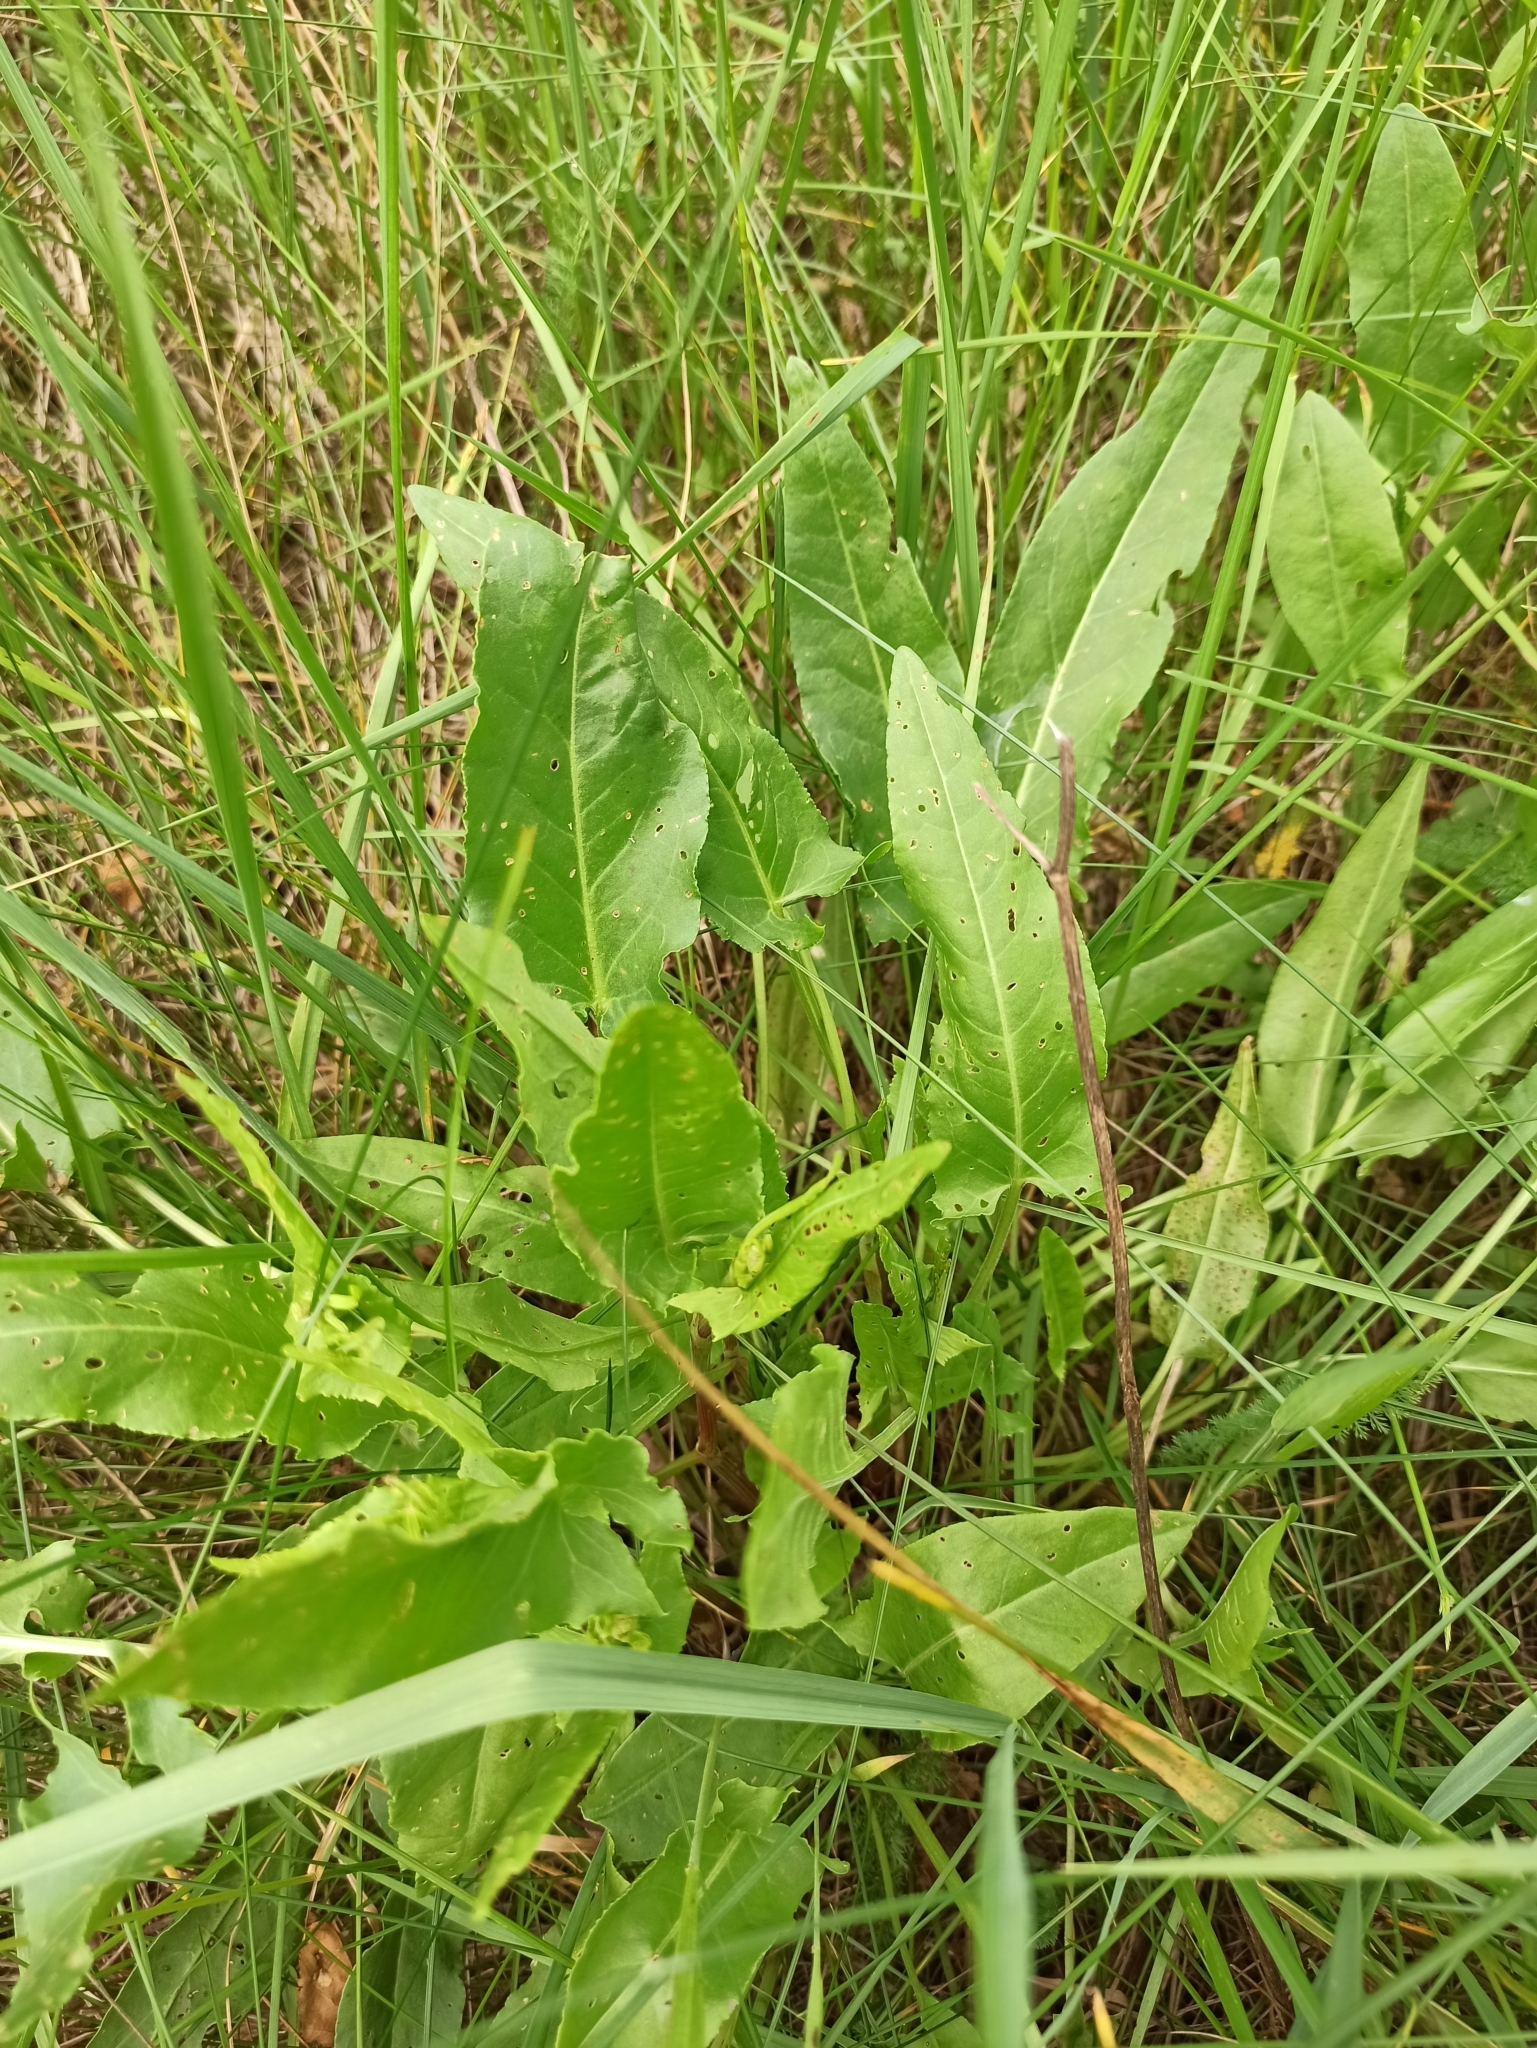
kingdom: Plantae
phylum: Tracheophyta
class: Magnoliopsida
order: Caryophyllales
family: Polygonaceae
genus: Rumex
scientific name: Rumex acetosa
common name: Garden sorrel
